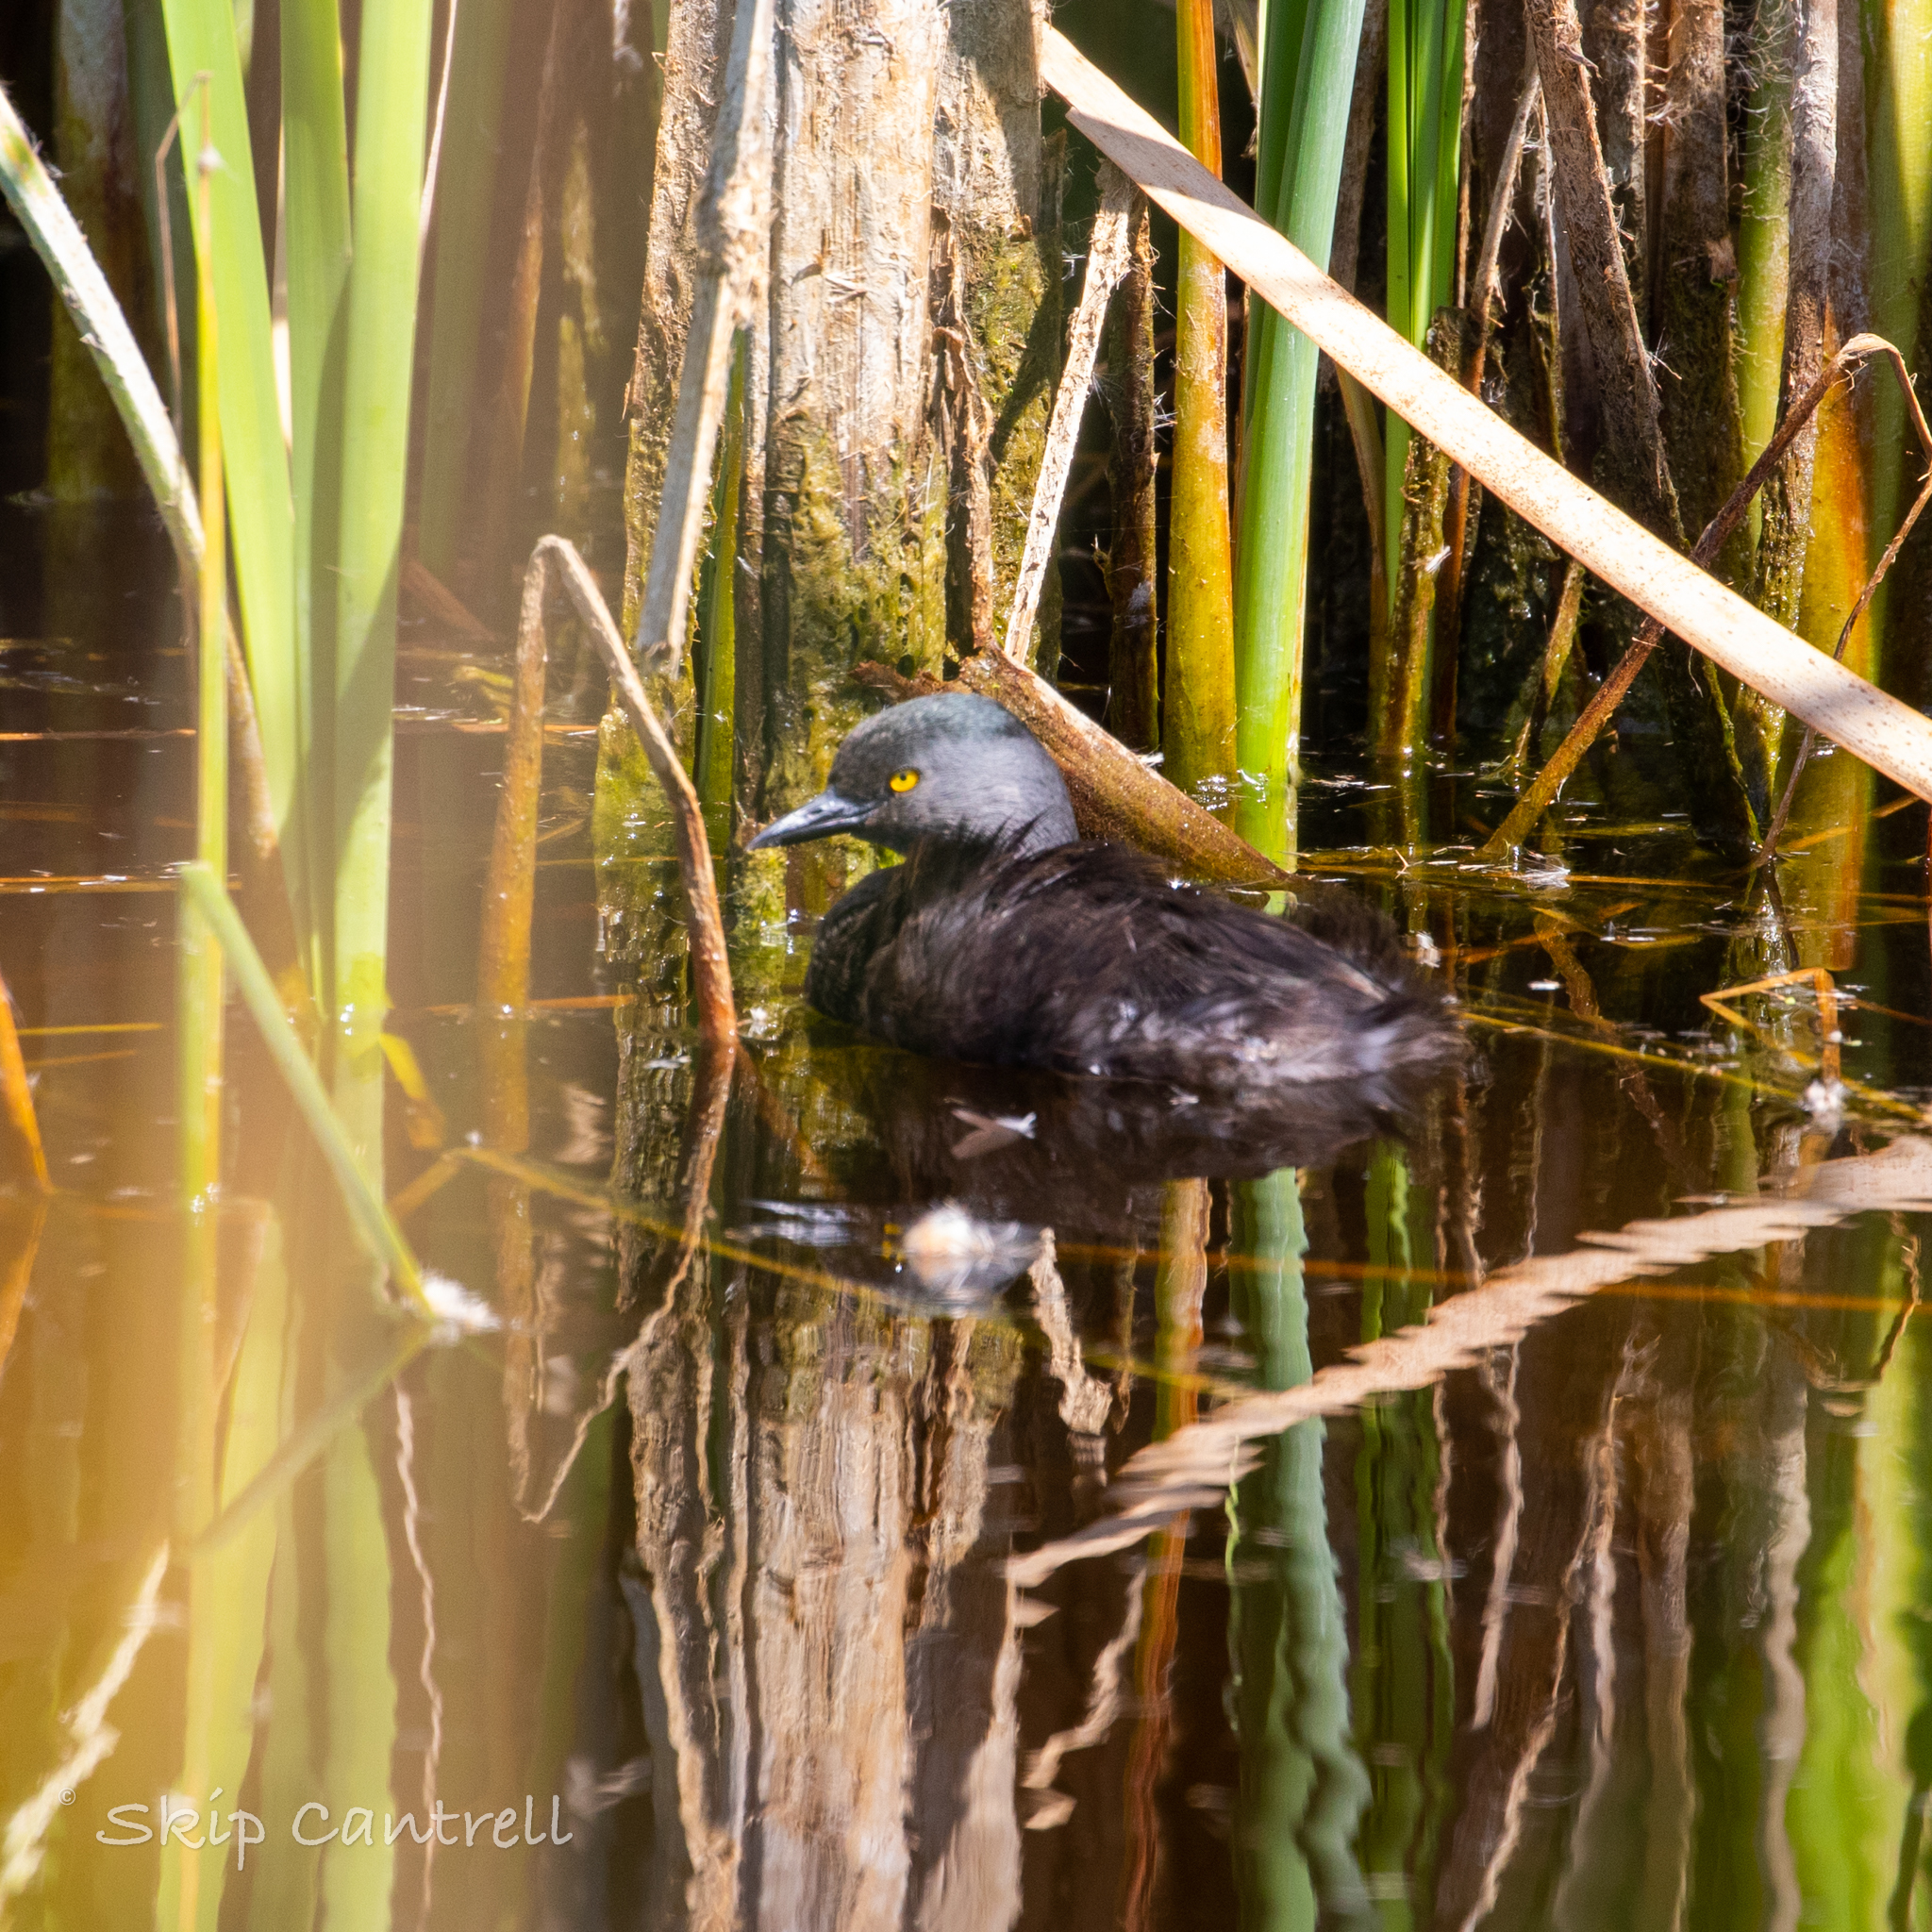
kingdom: Animalia
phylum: Chordata
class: Aves
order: Podicipediformes
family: Podicipedidae
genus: Tachybaptus
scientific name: Tachybaptus dominicus
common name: Least grebe
